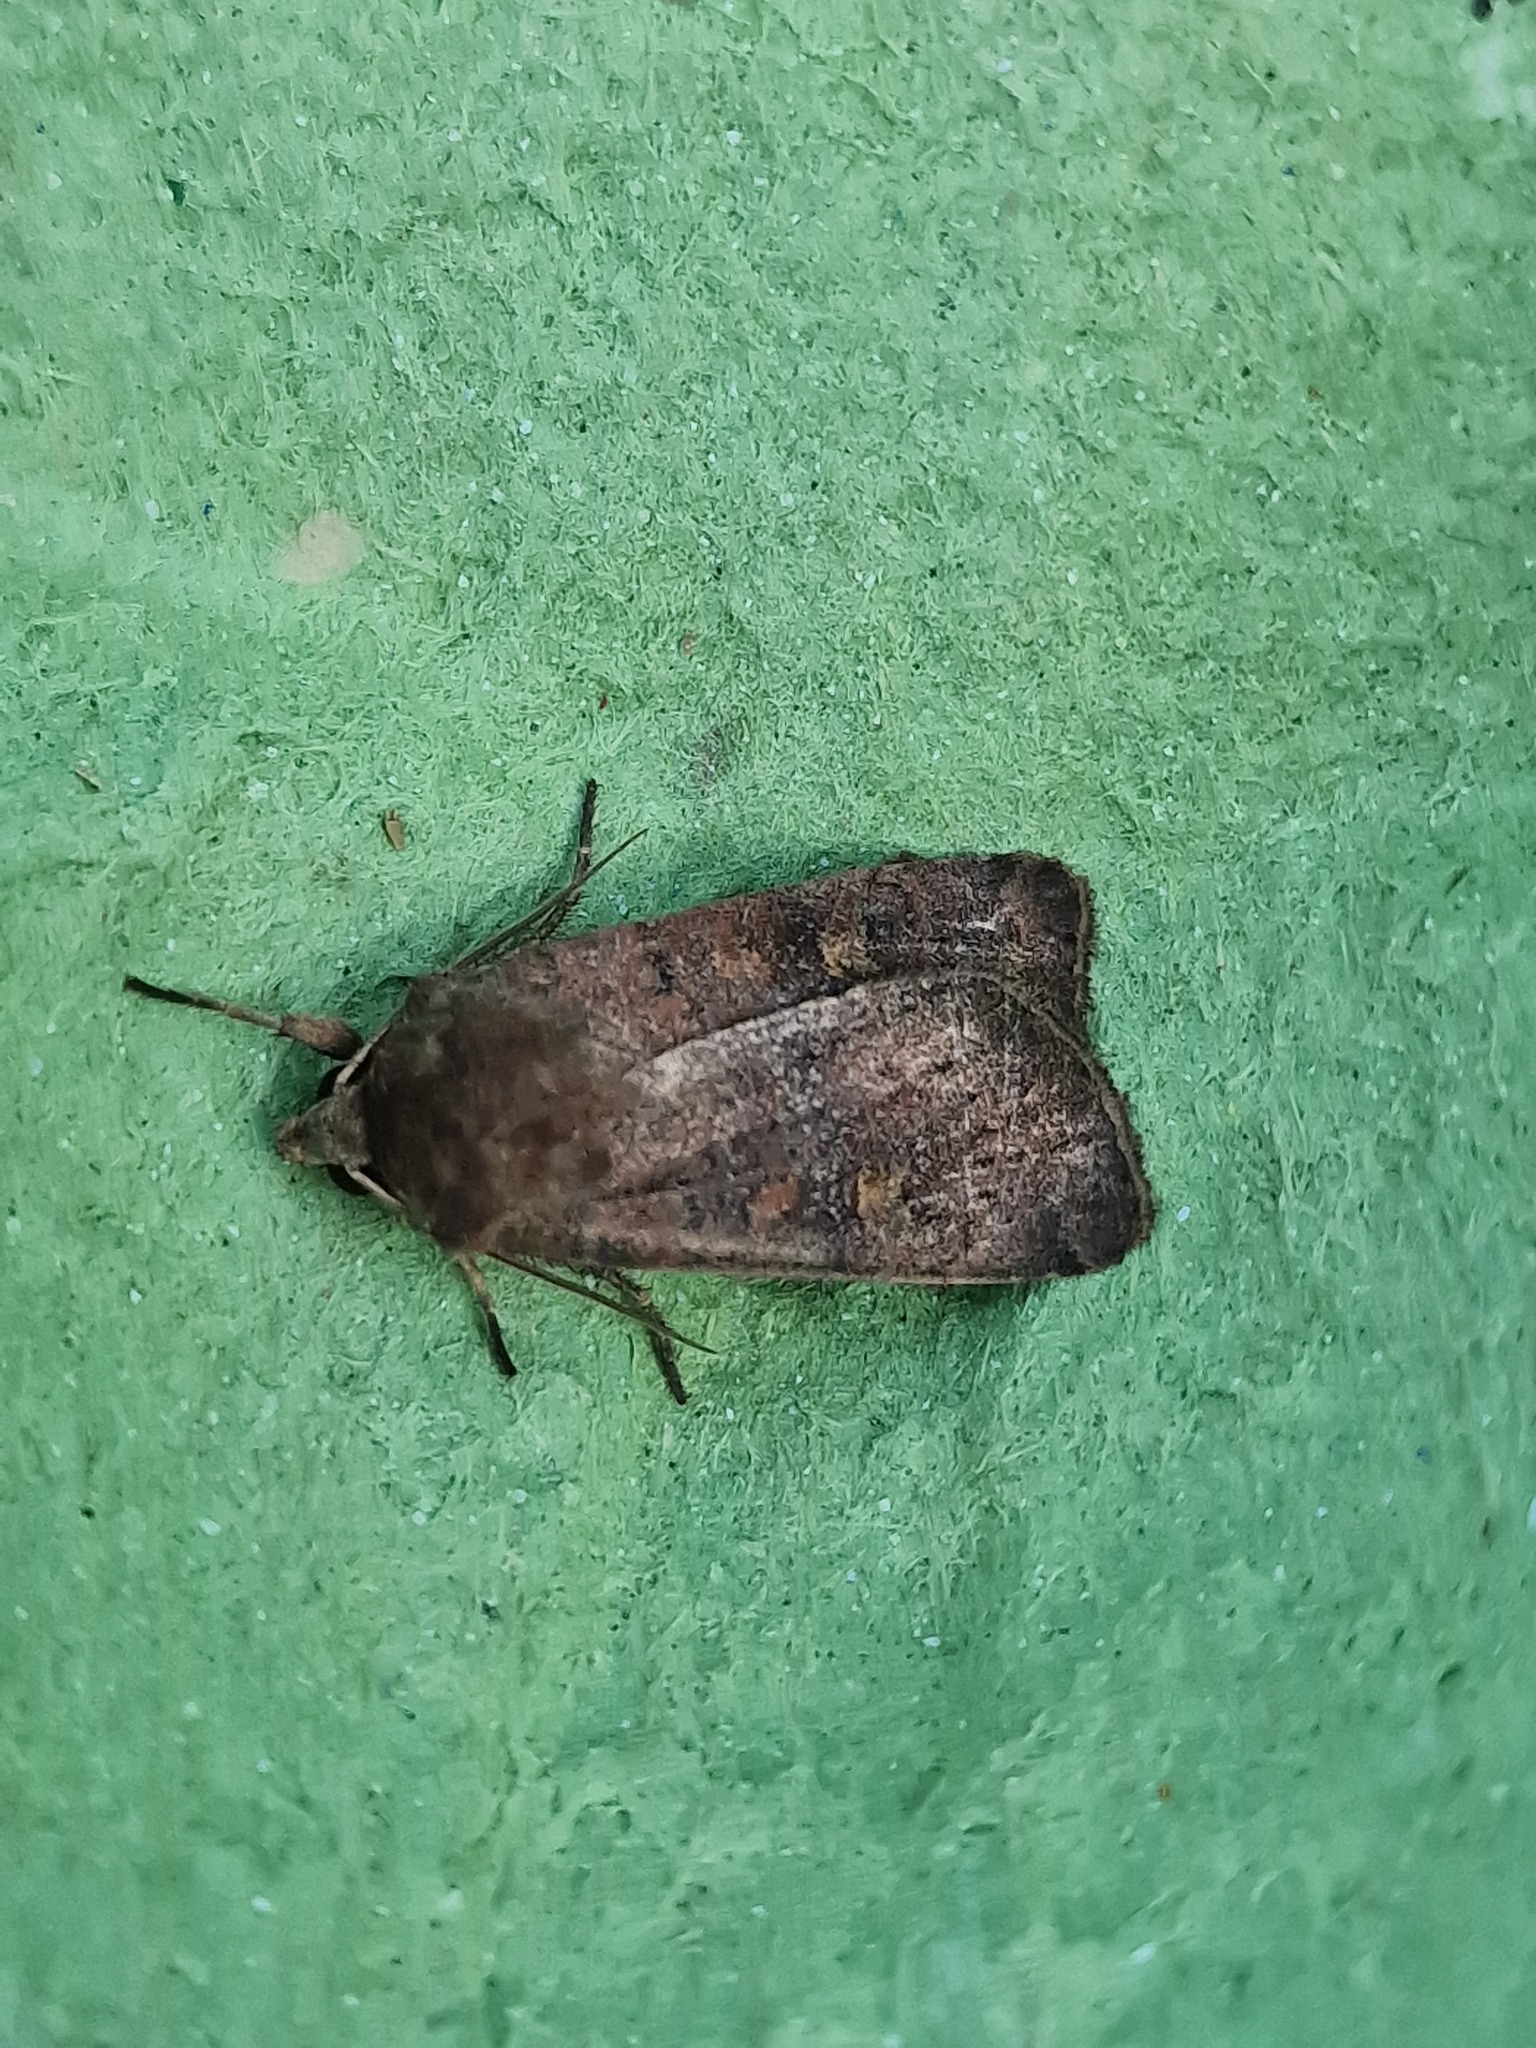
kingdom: Animalia
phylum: Arthropoda
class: Insecta
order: Lepidoptera
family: Noctuidae
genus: Xestia
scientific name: Xestia xanthographa
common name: Square-spot rustic
